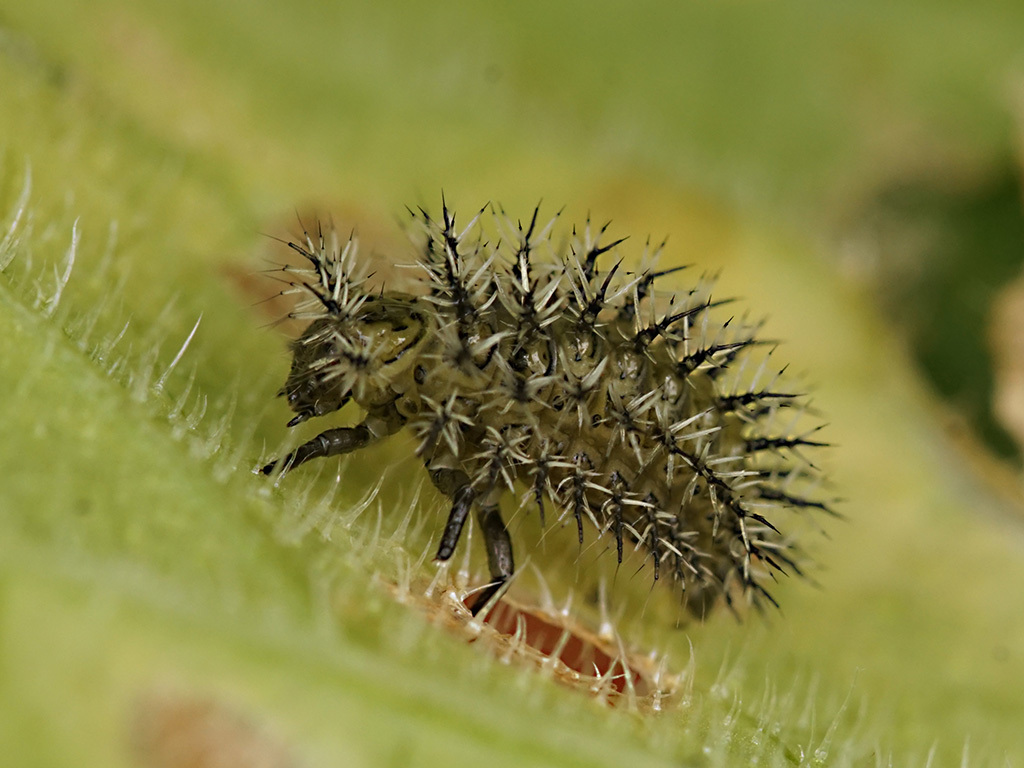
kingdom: Animalia
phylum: Arthropoda
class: Insecta
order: Coleoptera
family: Coccinellidae
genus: Henosepilachna
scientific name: Henosepilachna argus
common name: Bryony ladybird
